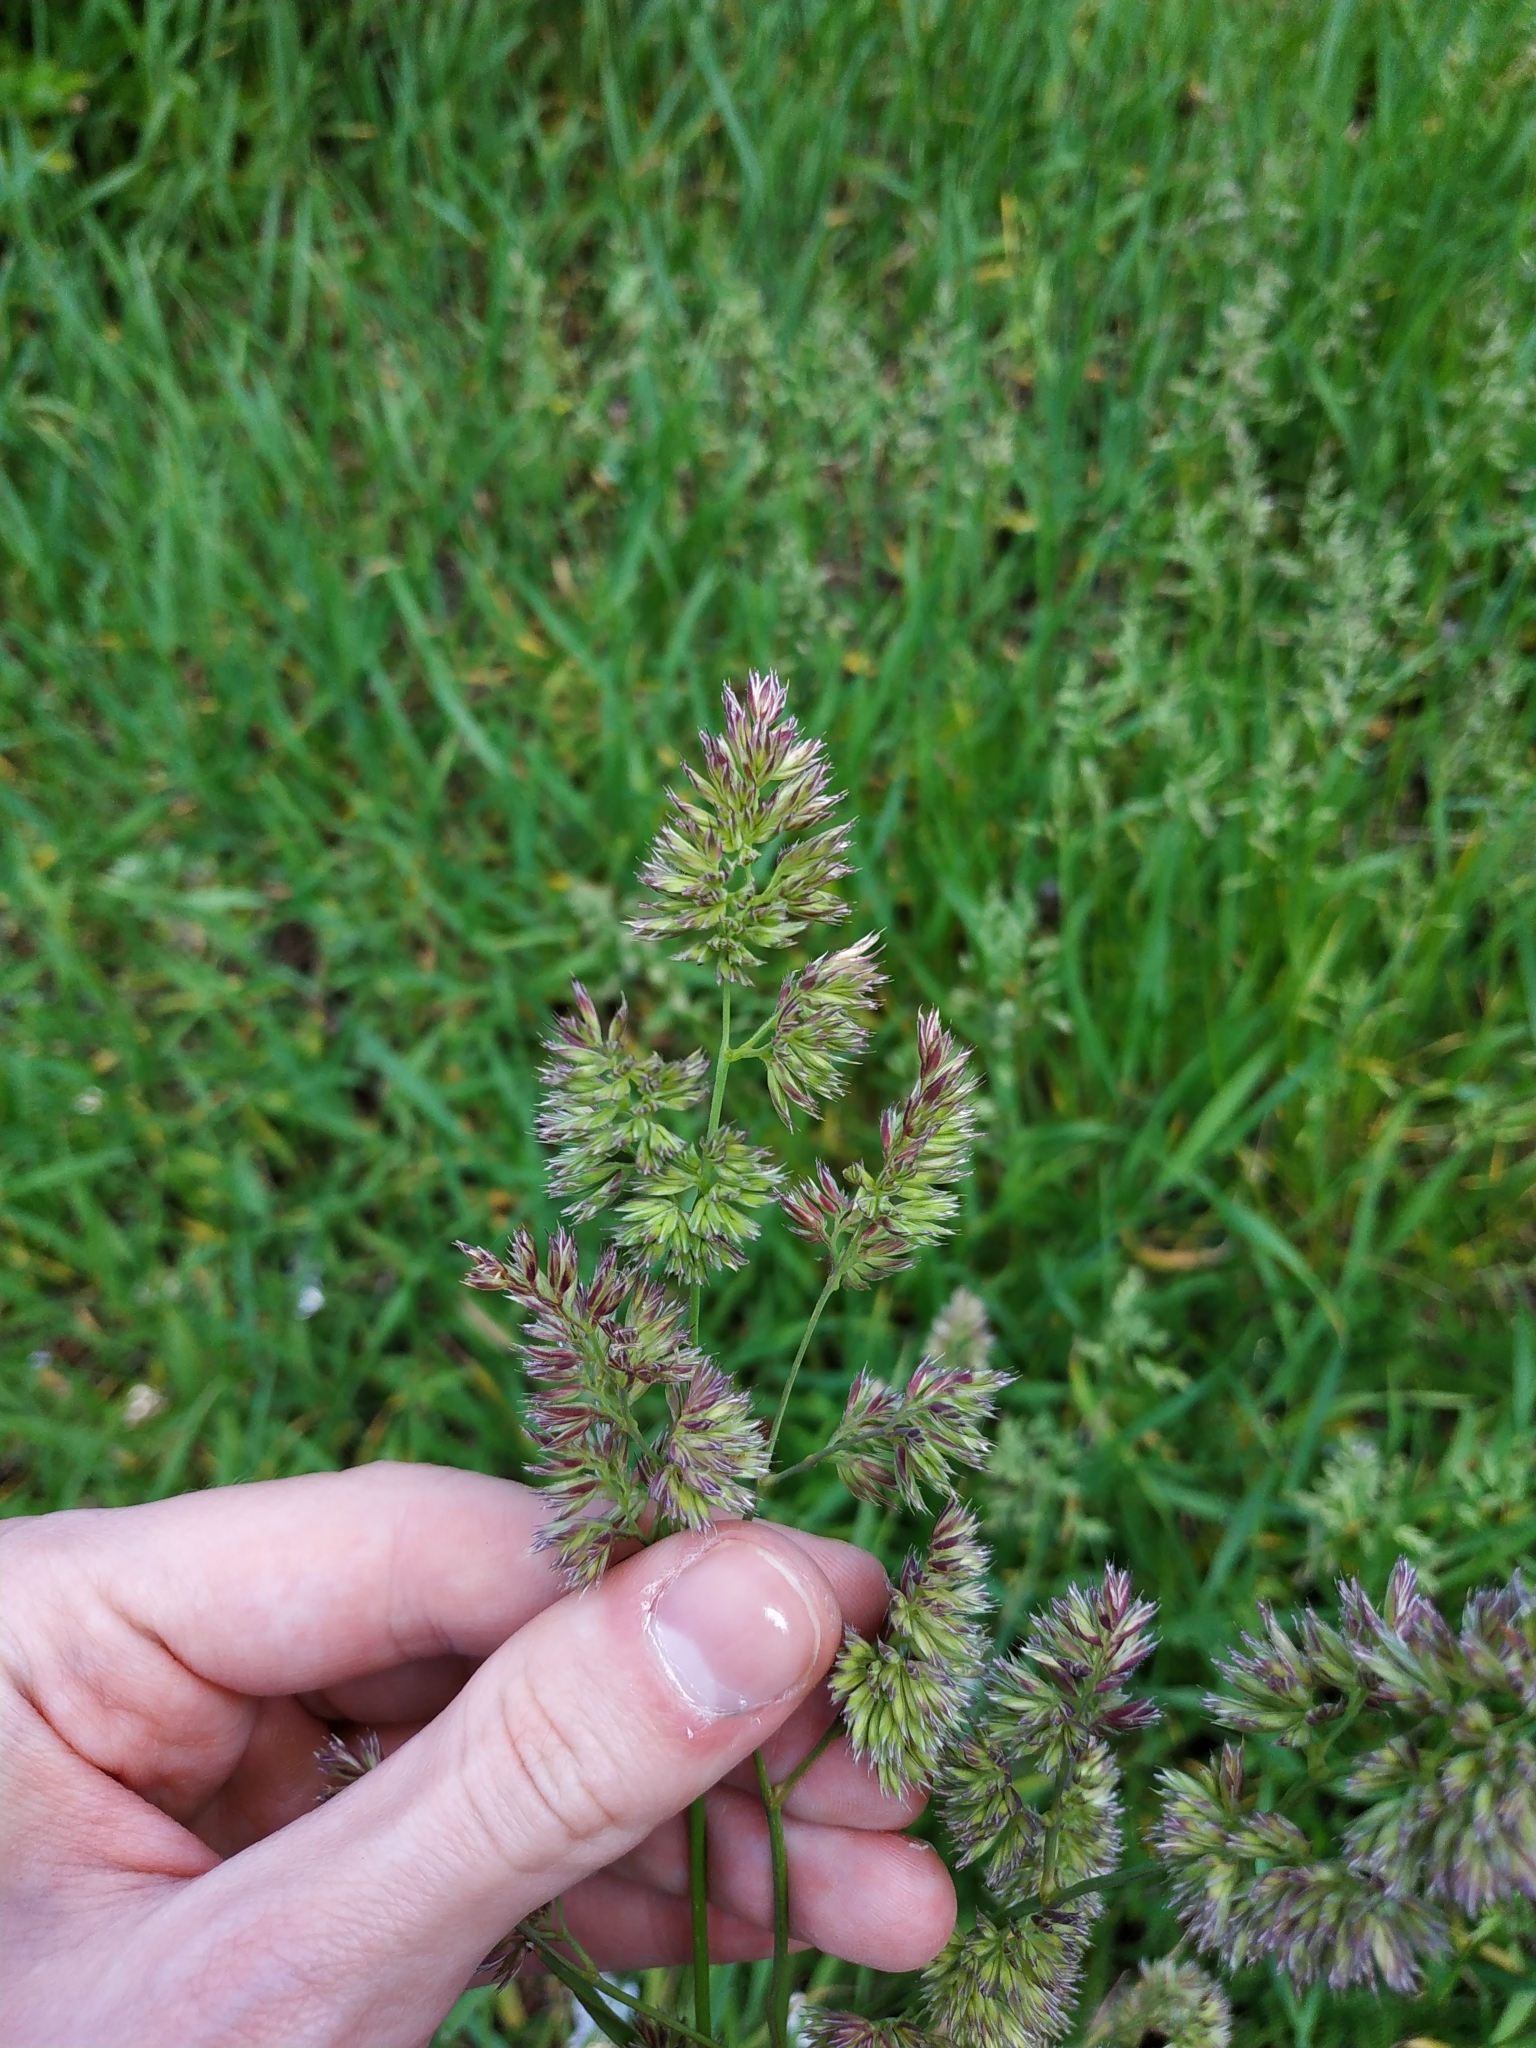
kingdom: Plantae
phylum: Tracheophyta
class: Liliopsida
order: Poales
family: Poaceae
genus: Dactylis
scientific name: Dactylis glomerata
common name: Orchardgrass
